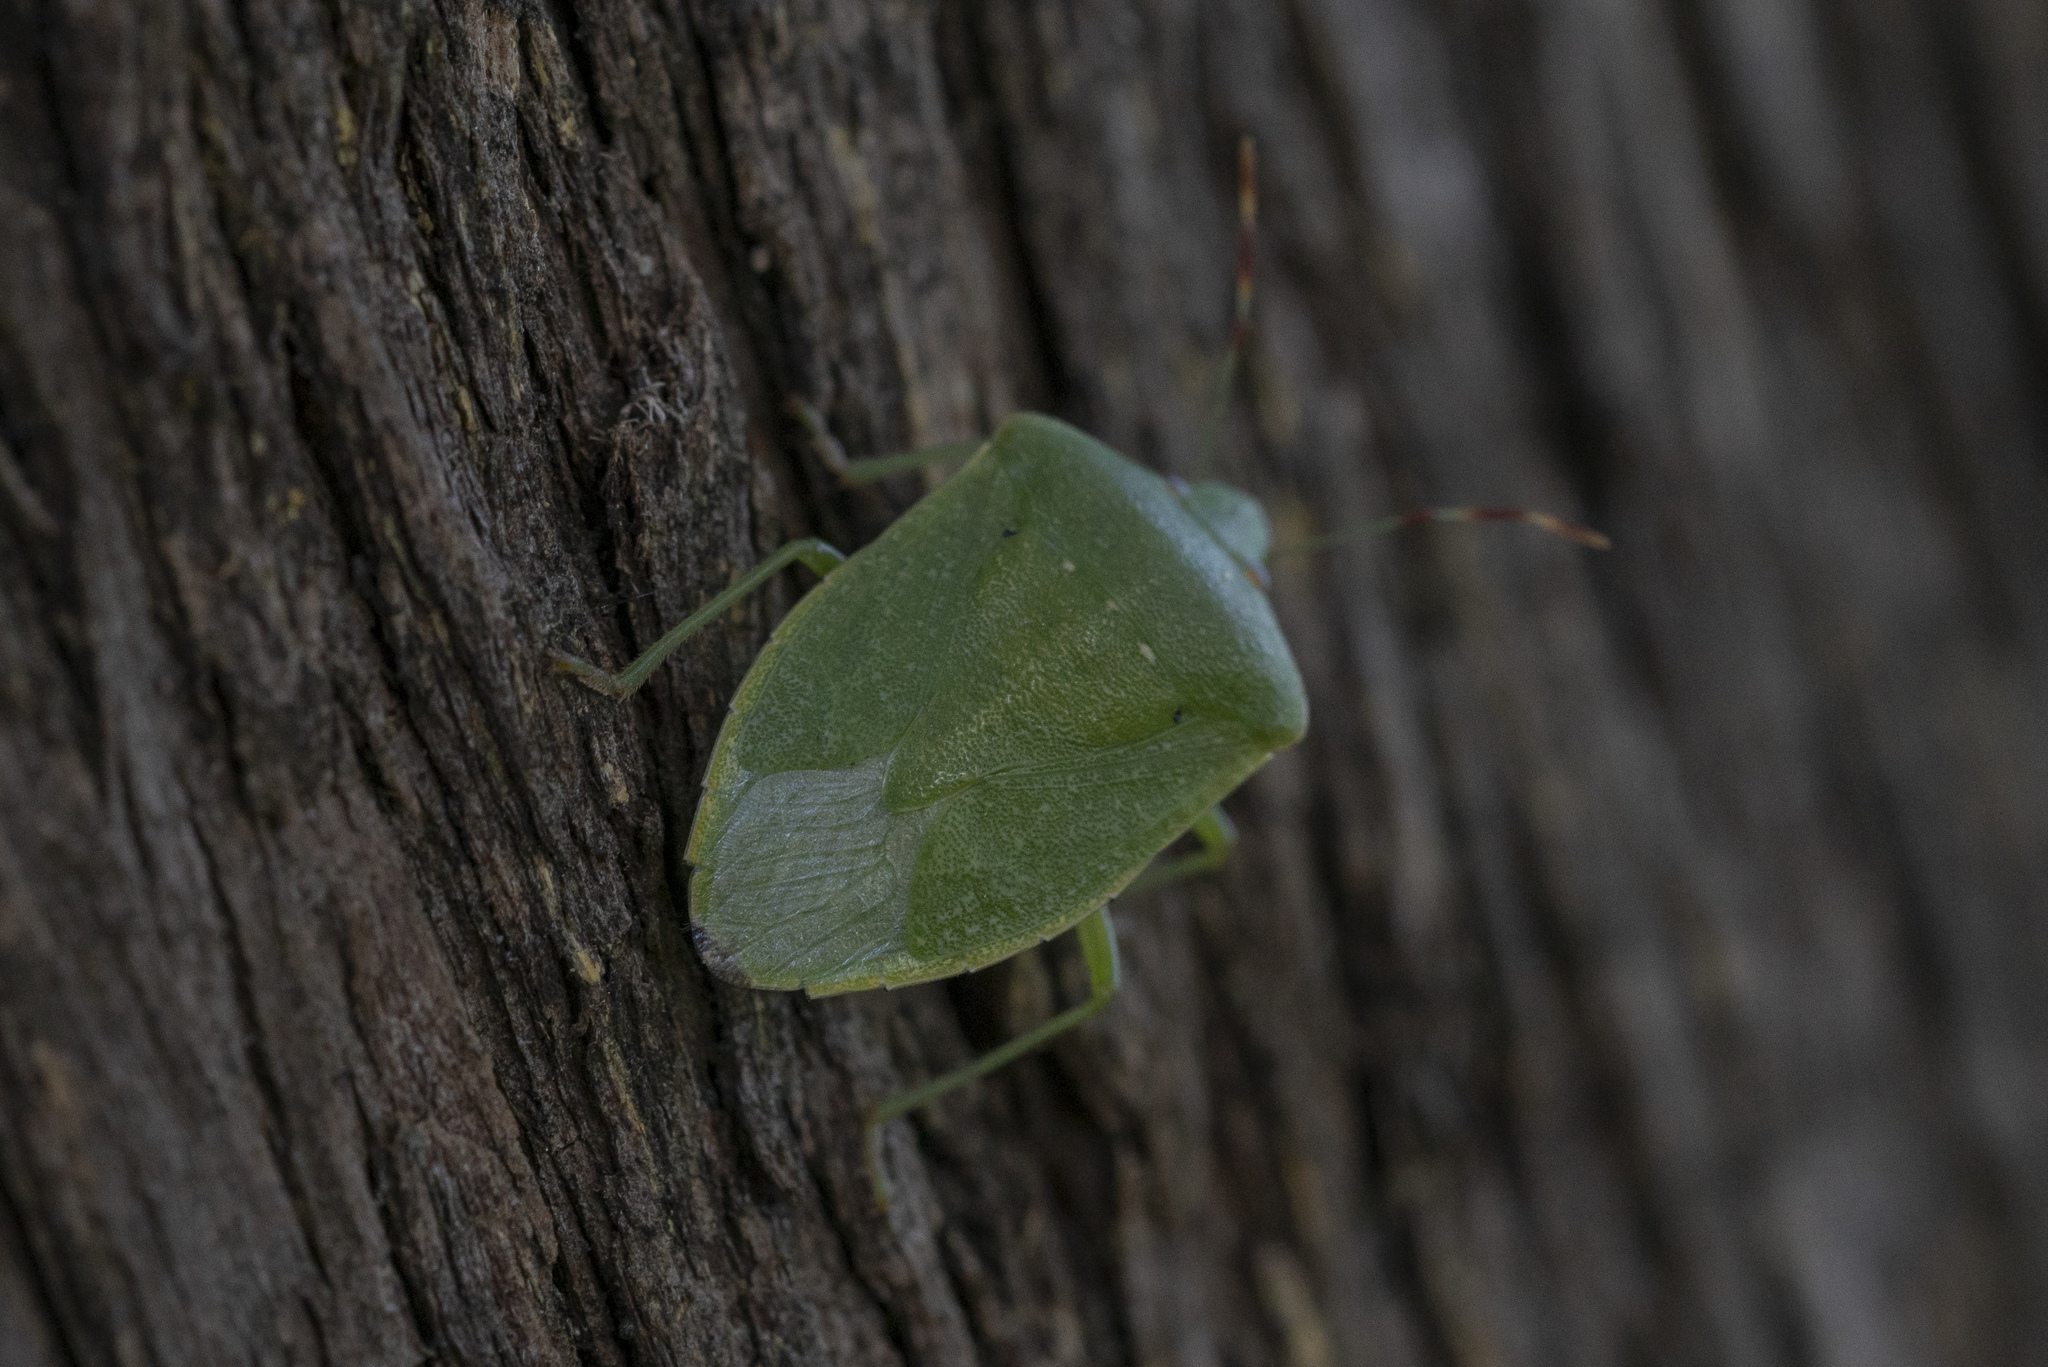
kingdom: Animalia
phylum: Arthropoda
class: Insecta
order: Hemiptera
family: Pentatomidae
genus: Nezara
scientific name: Nezara viridula
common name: Southern green stink bug
